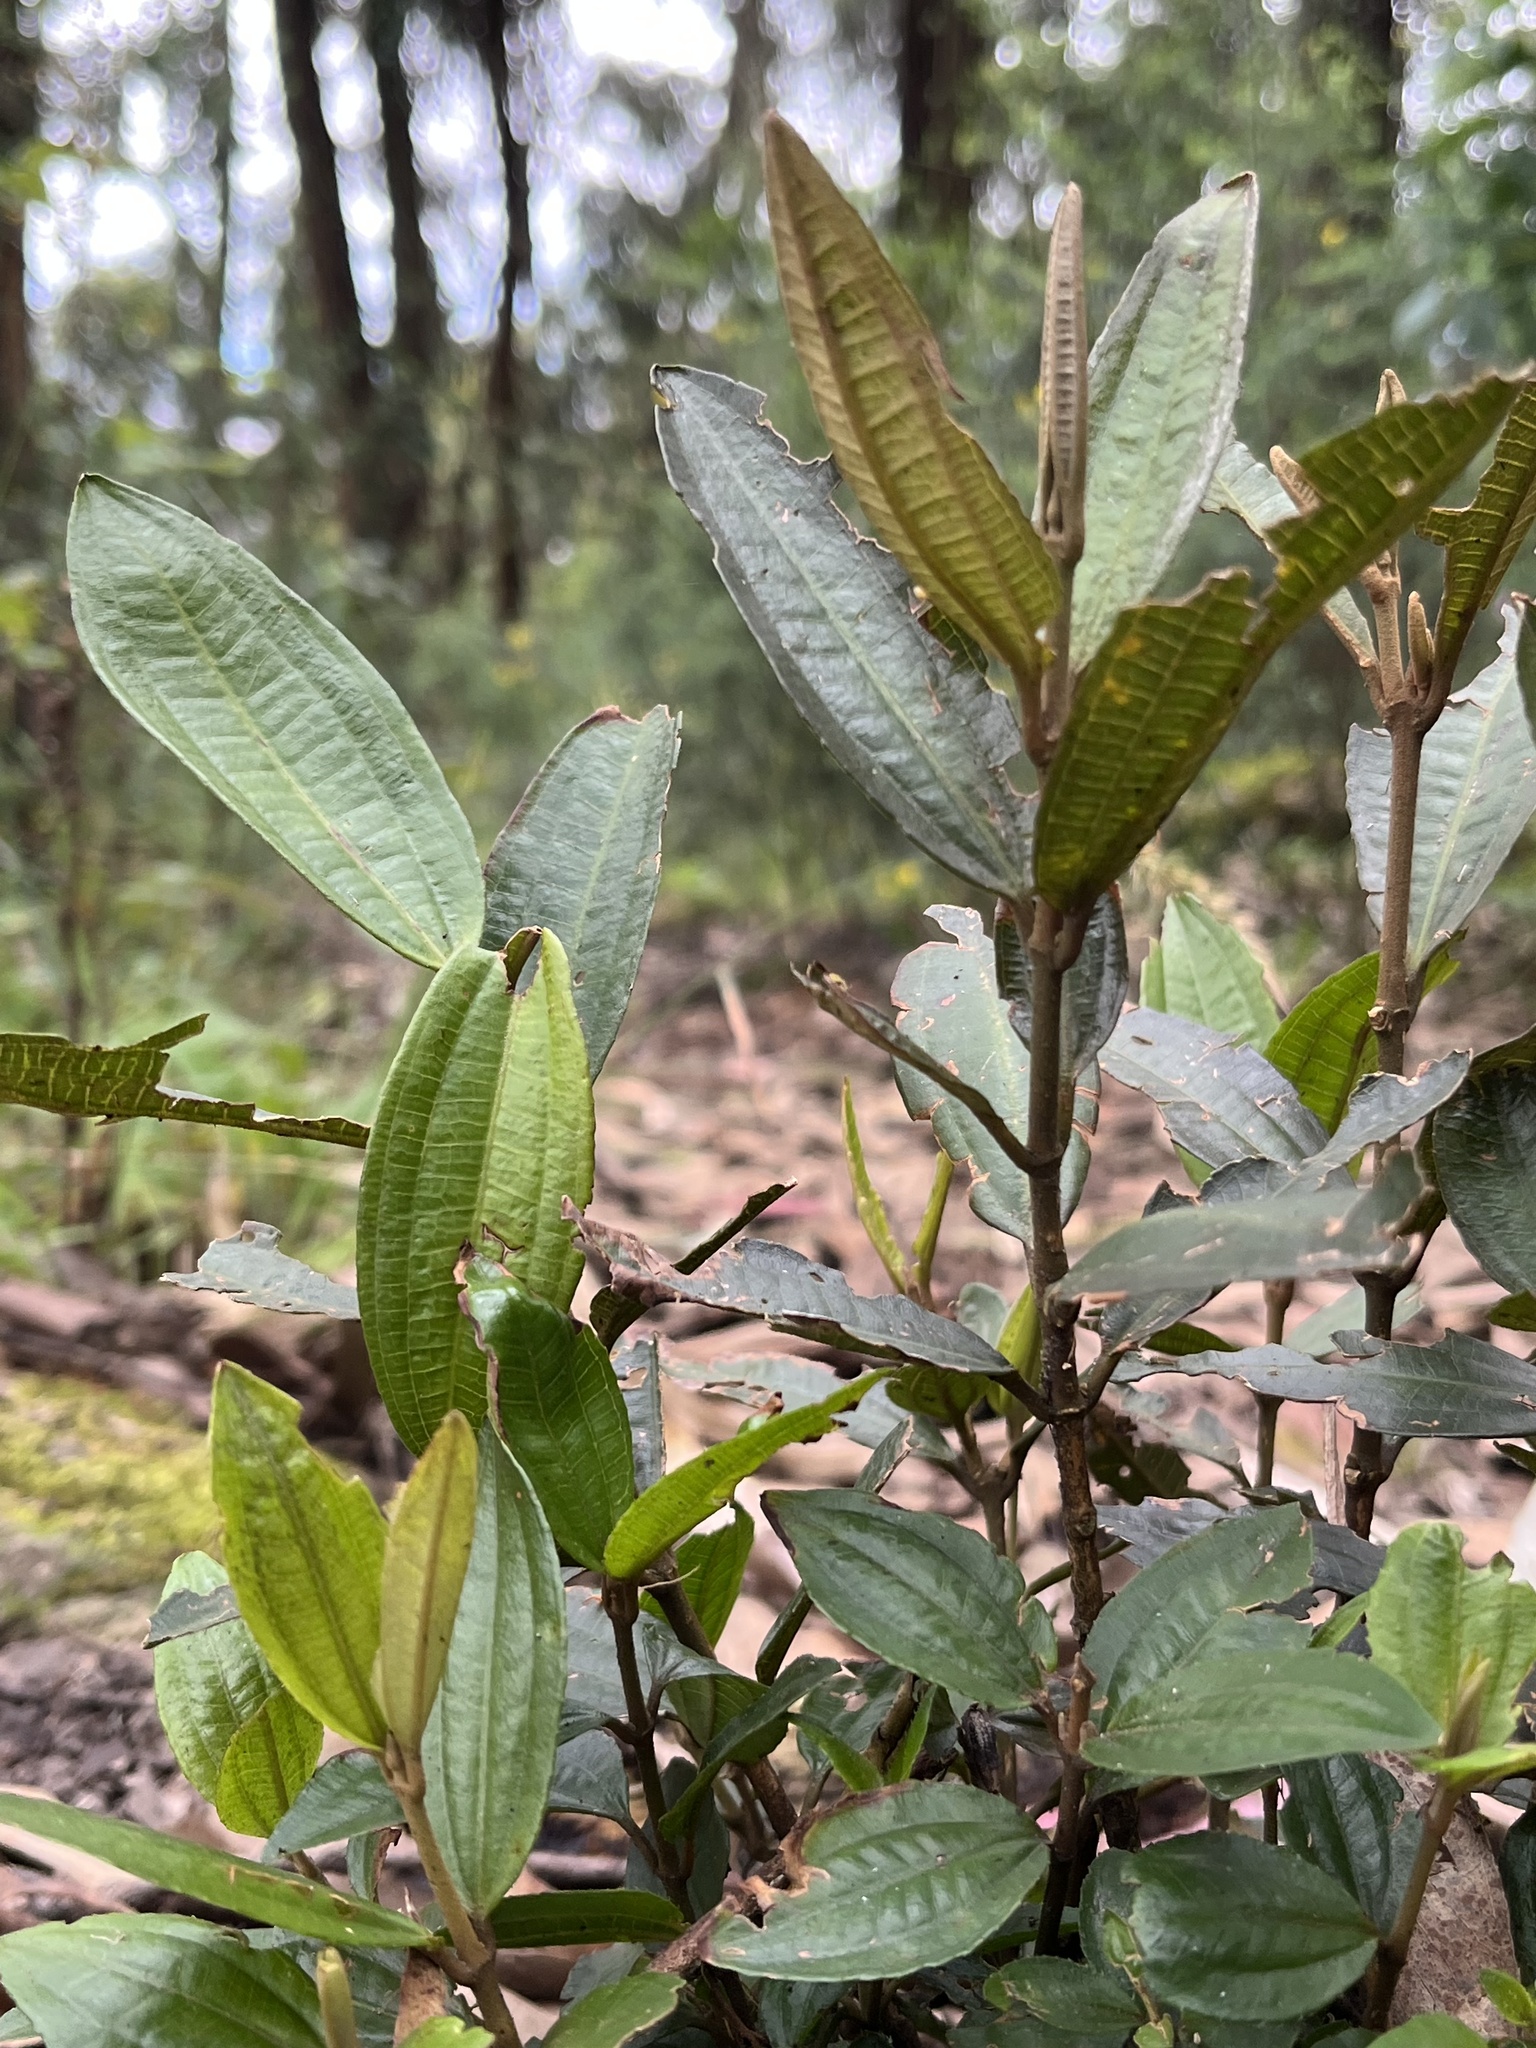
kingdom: Plantae
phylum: Tracheophyta
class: Magnoliopsida
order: Myrtales
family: Melastomataceae
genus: Miconia
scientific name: Miconia squamulosa
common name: Squamulose maya
